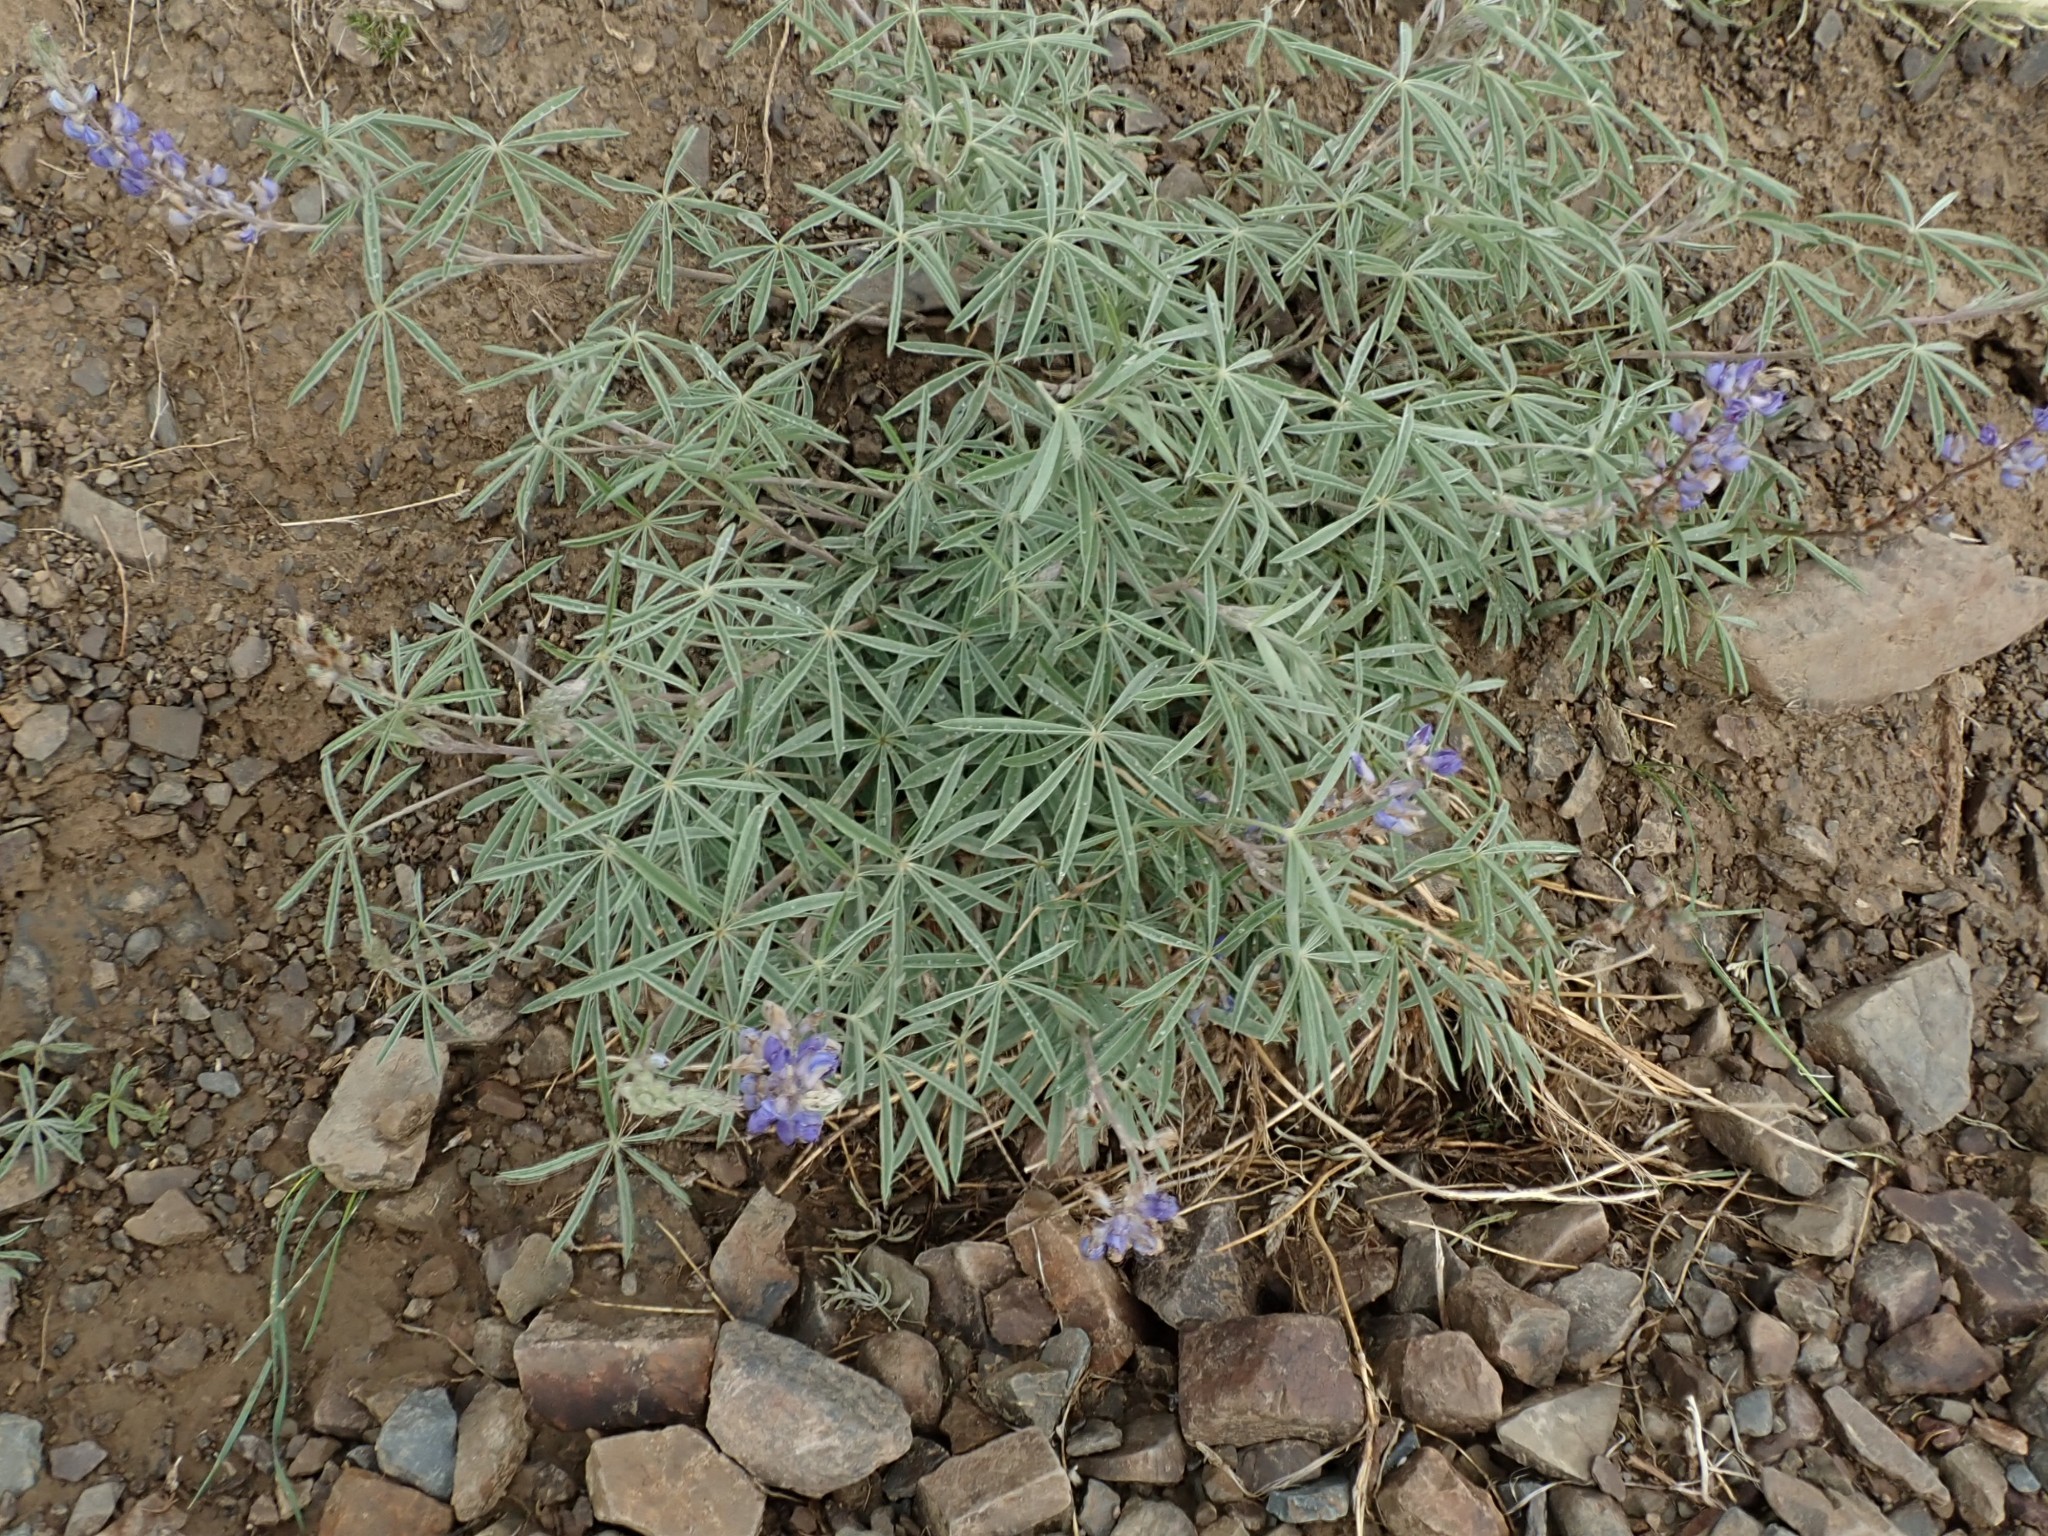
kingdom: Plantae
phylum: Tracheophyta
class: Magnoliopsida
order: Fabales
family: Fabaceae
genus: Lupinus
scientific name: Lupinus argenteus
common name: Silvery lupine
